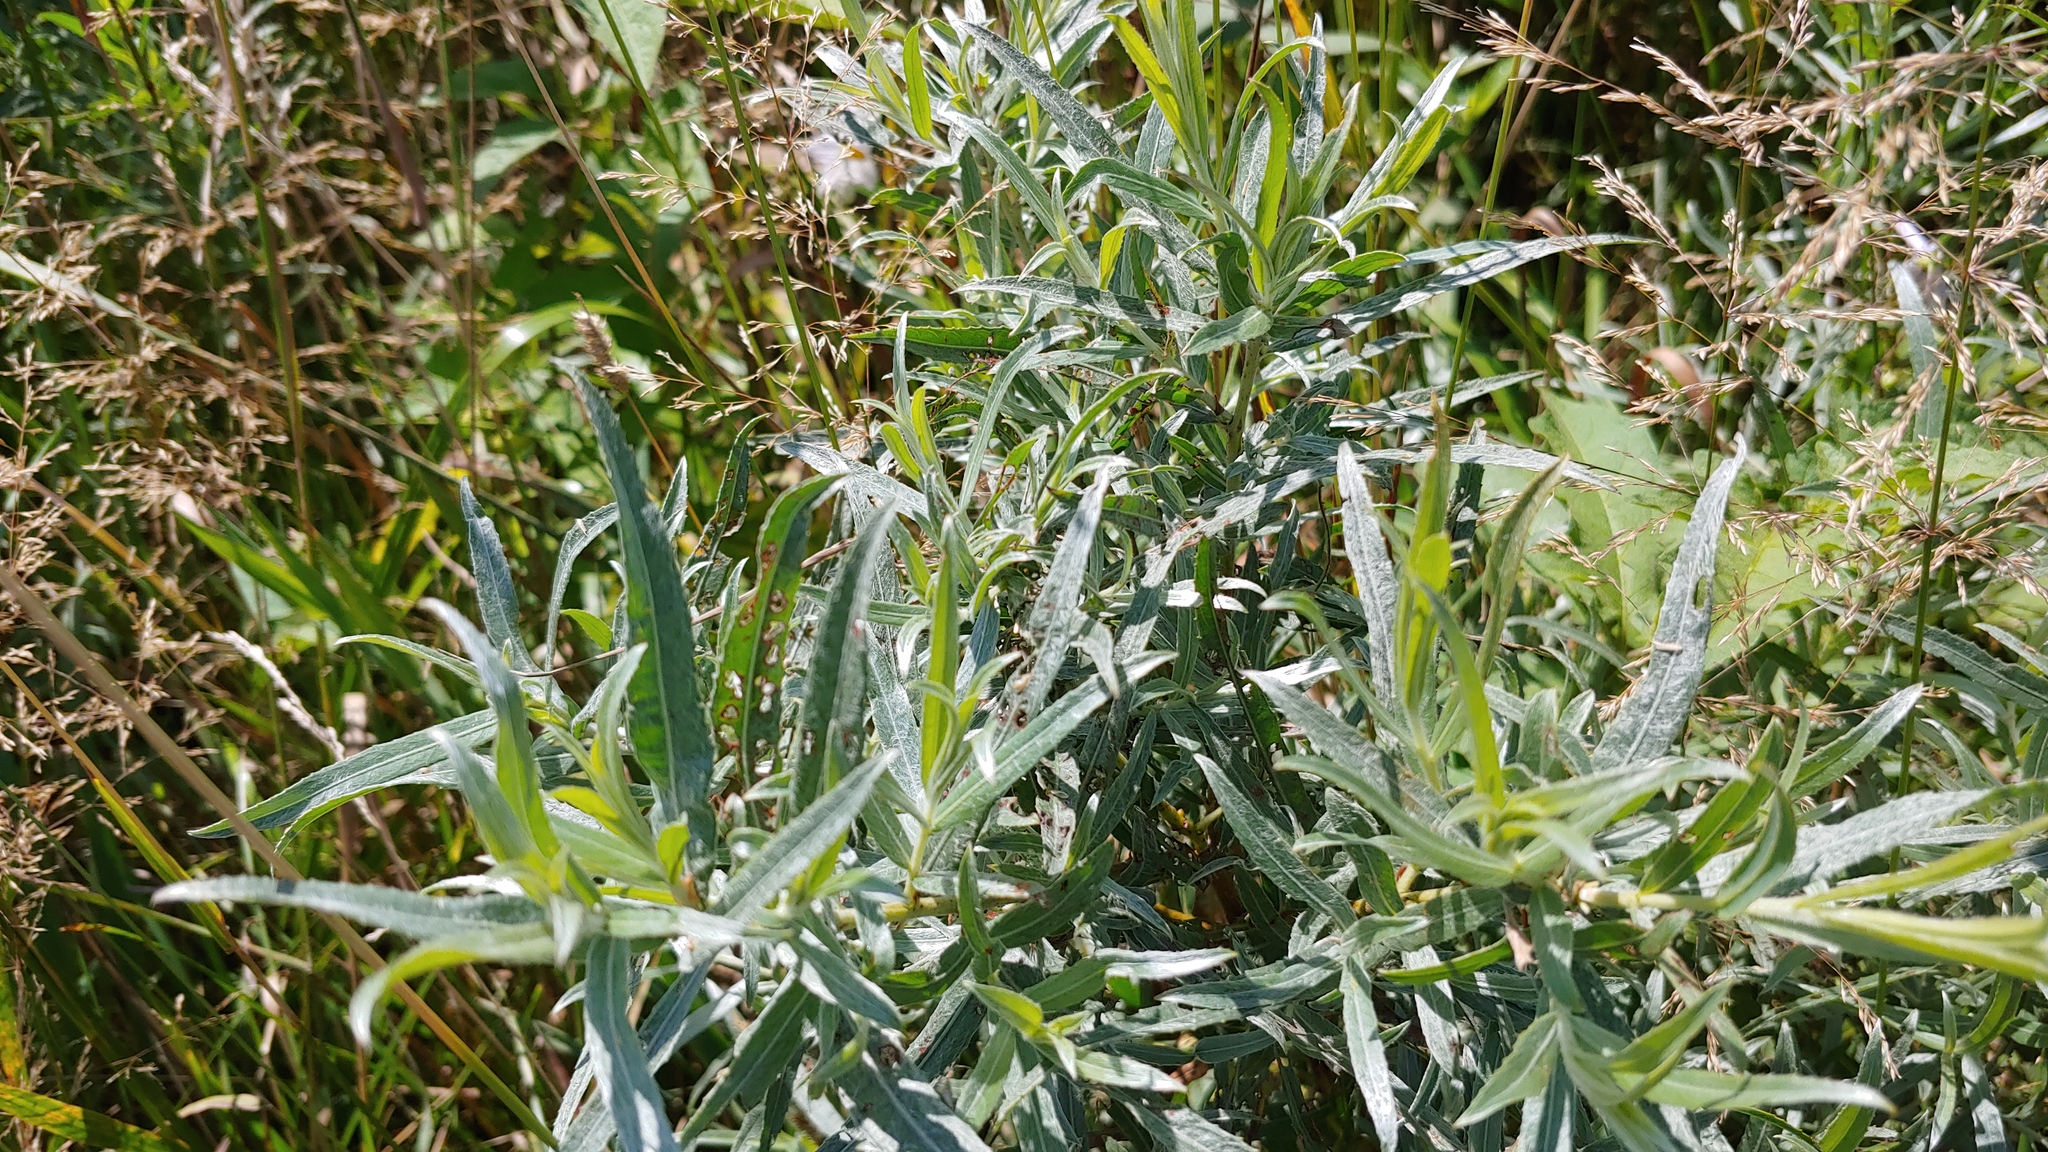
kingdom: Plantae
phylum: Tracheophyta
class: Magnoliopsida
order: Malpighiales
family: Salicaceae
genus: Salix
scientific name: Salix interior
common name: Sandbar willow
